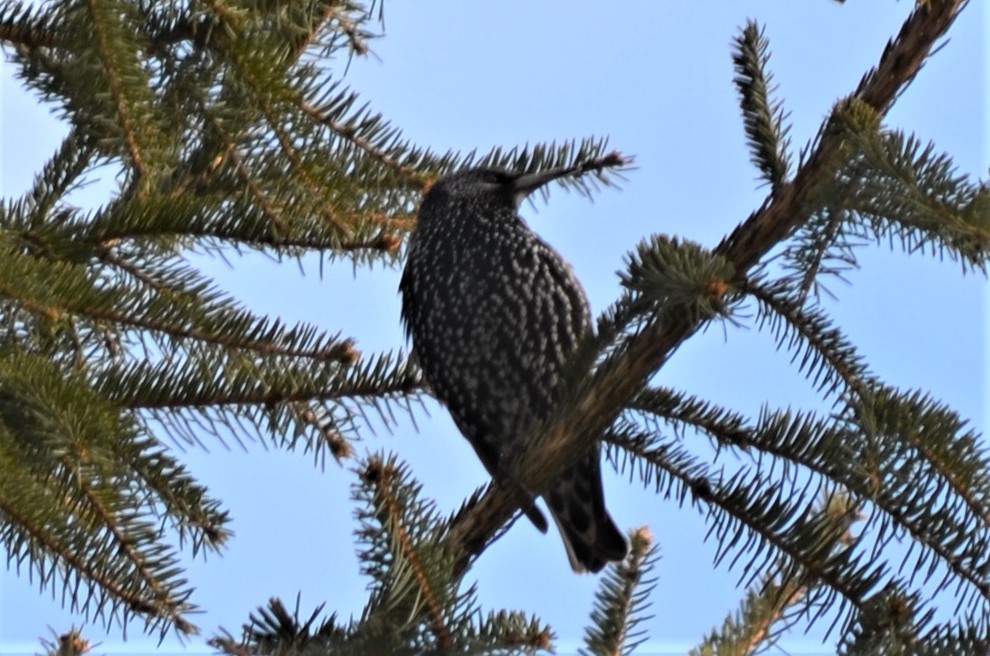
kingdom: Animalia
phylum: Chordata
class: Aves
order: Passeriformes
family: Sturnidae
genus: Sturnus
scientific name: Sturnus vulgaris
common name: Common starling
